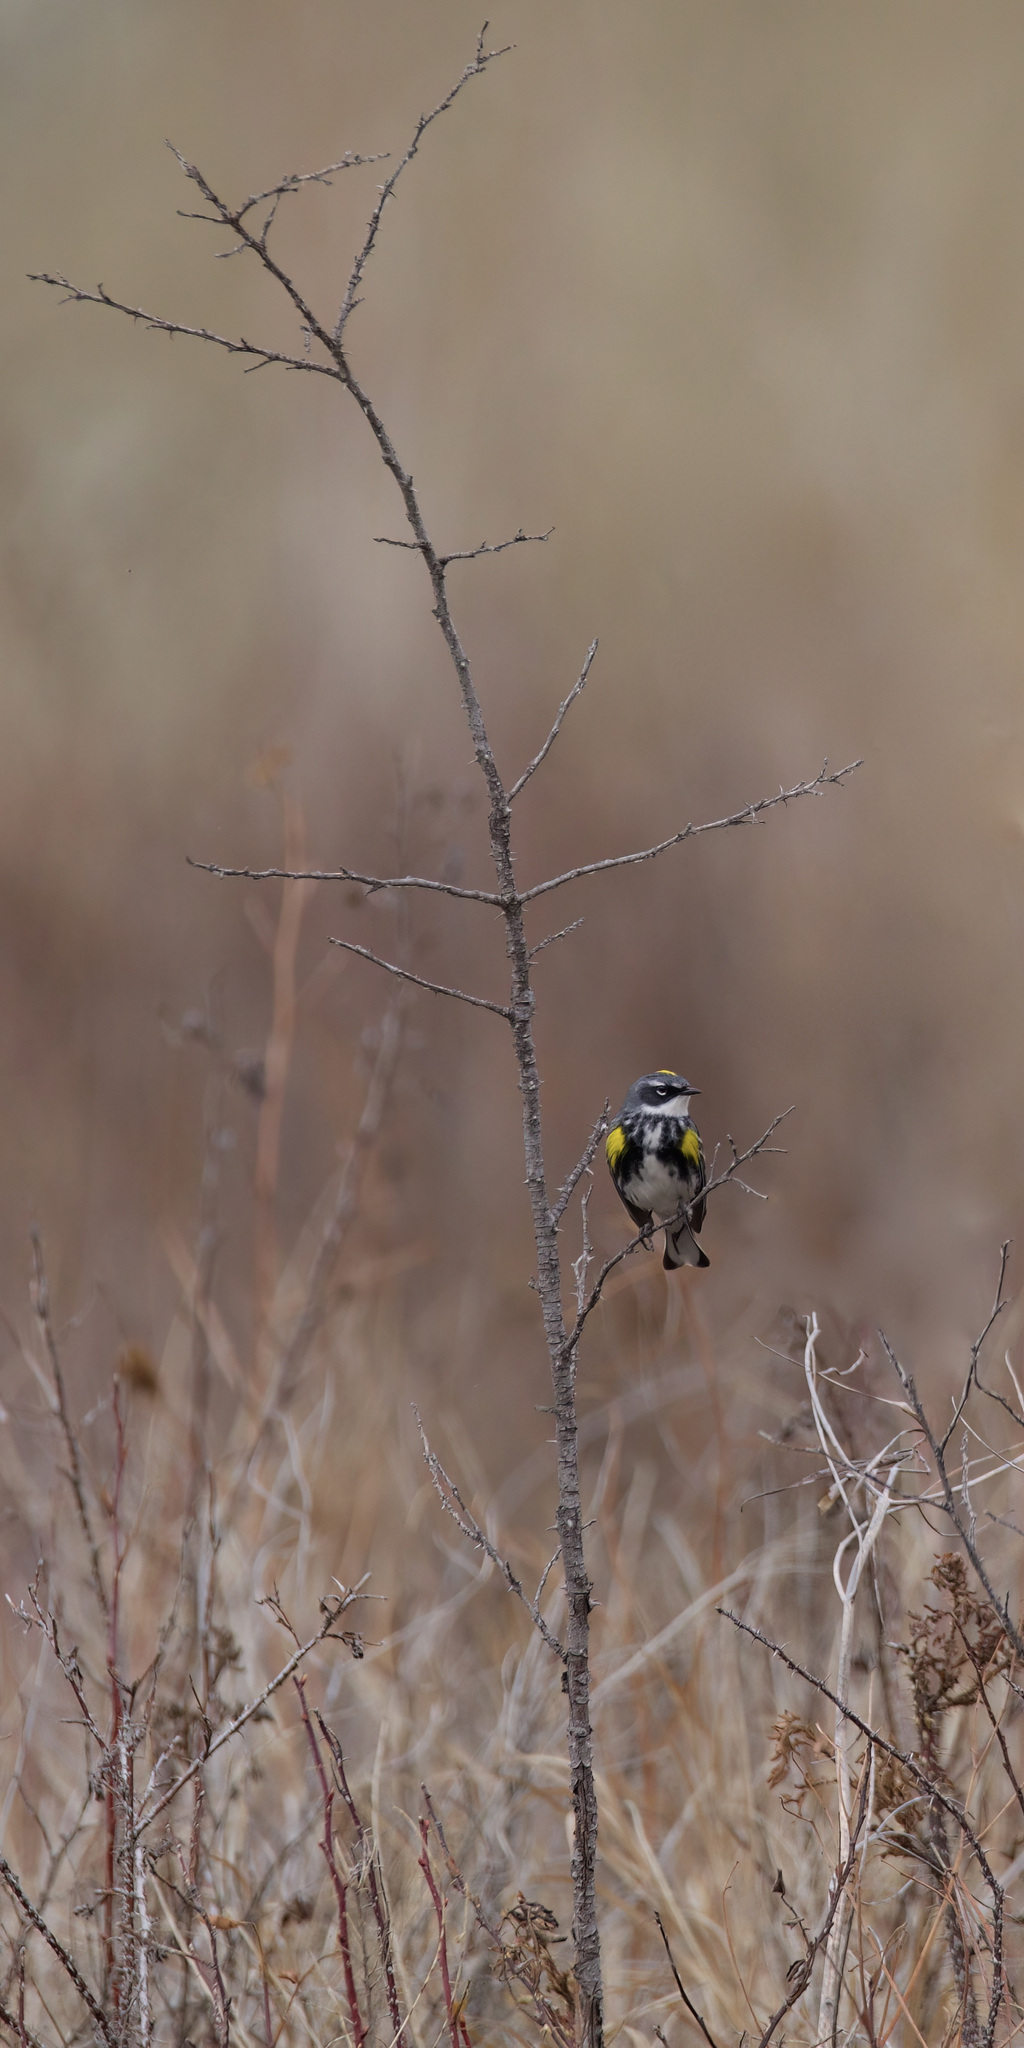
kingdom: Animalia
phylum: Chordata
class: Aves
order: Passeriformes
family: Parulidae
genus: Setophaga
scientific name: Setophaga coronata
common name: Myrtle warbler
